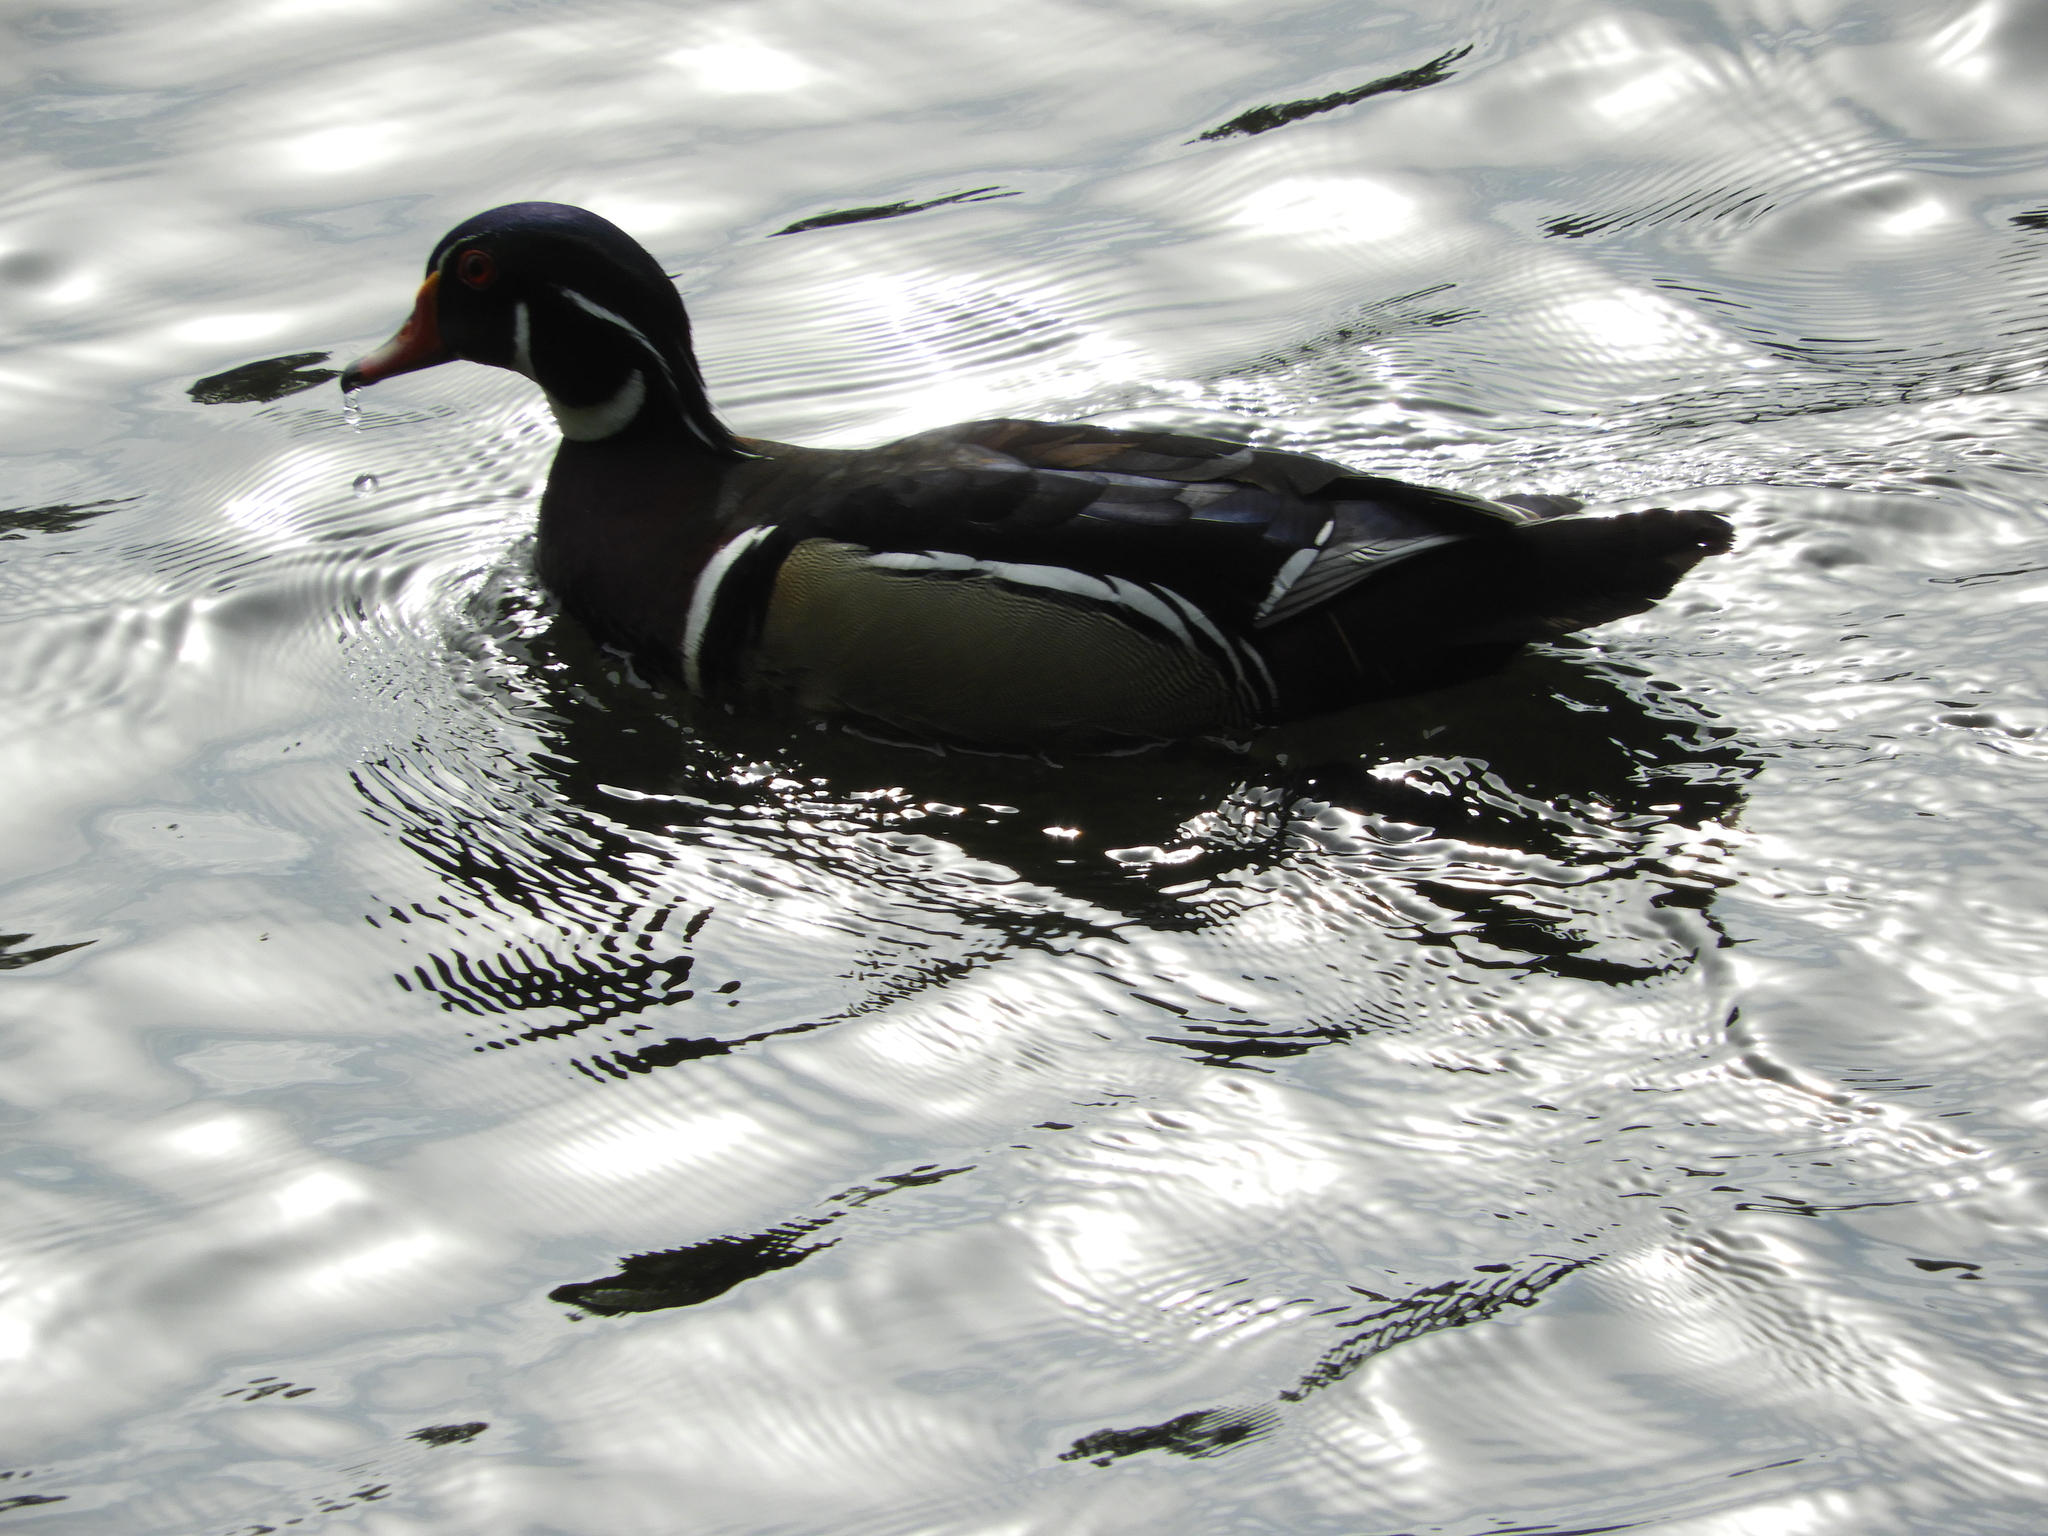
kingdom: Animalia
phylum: Chordata
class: Aves
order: Anseriformes
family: Anatidae
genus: Aix
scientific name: Aix sponsa
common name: Wood duck
